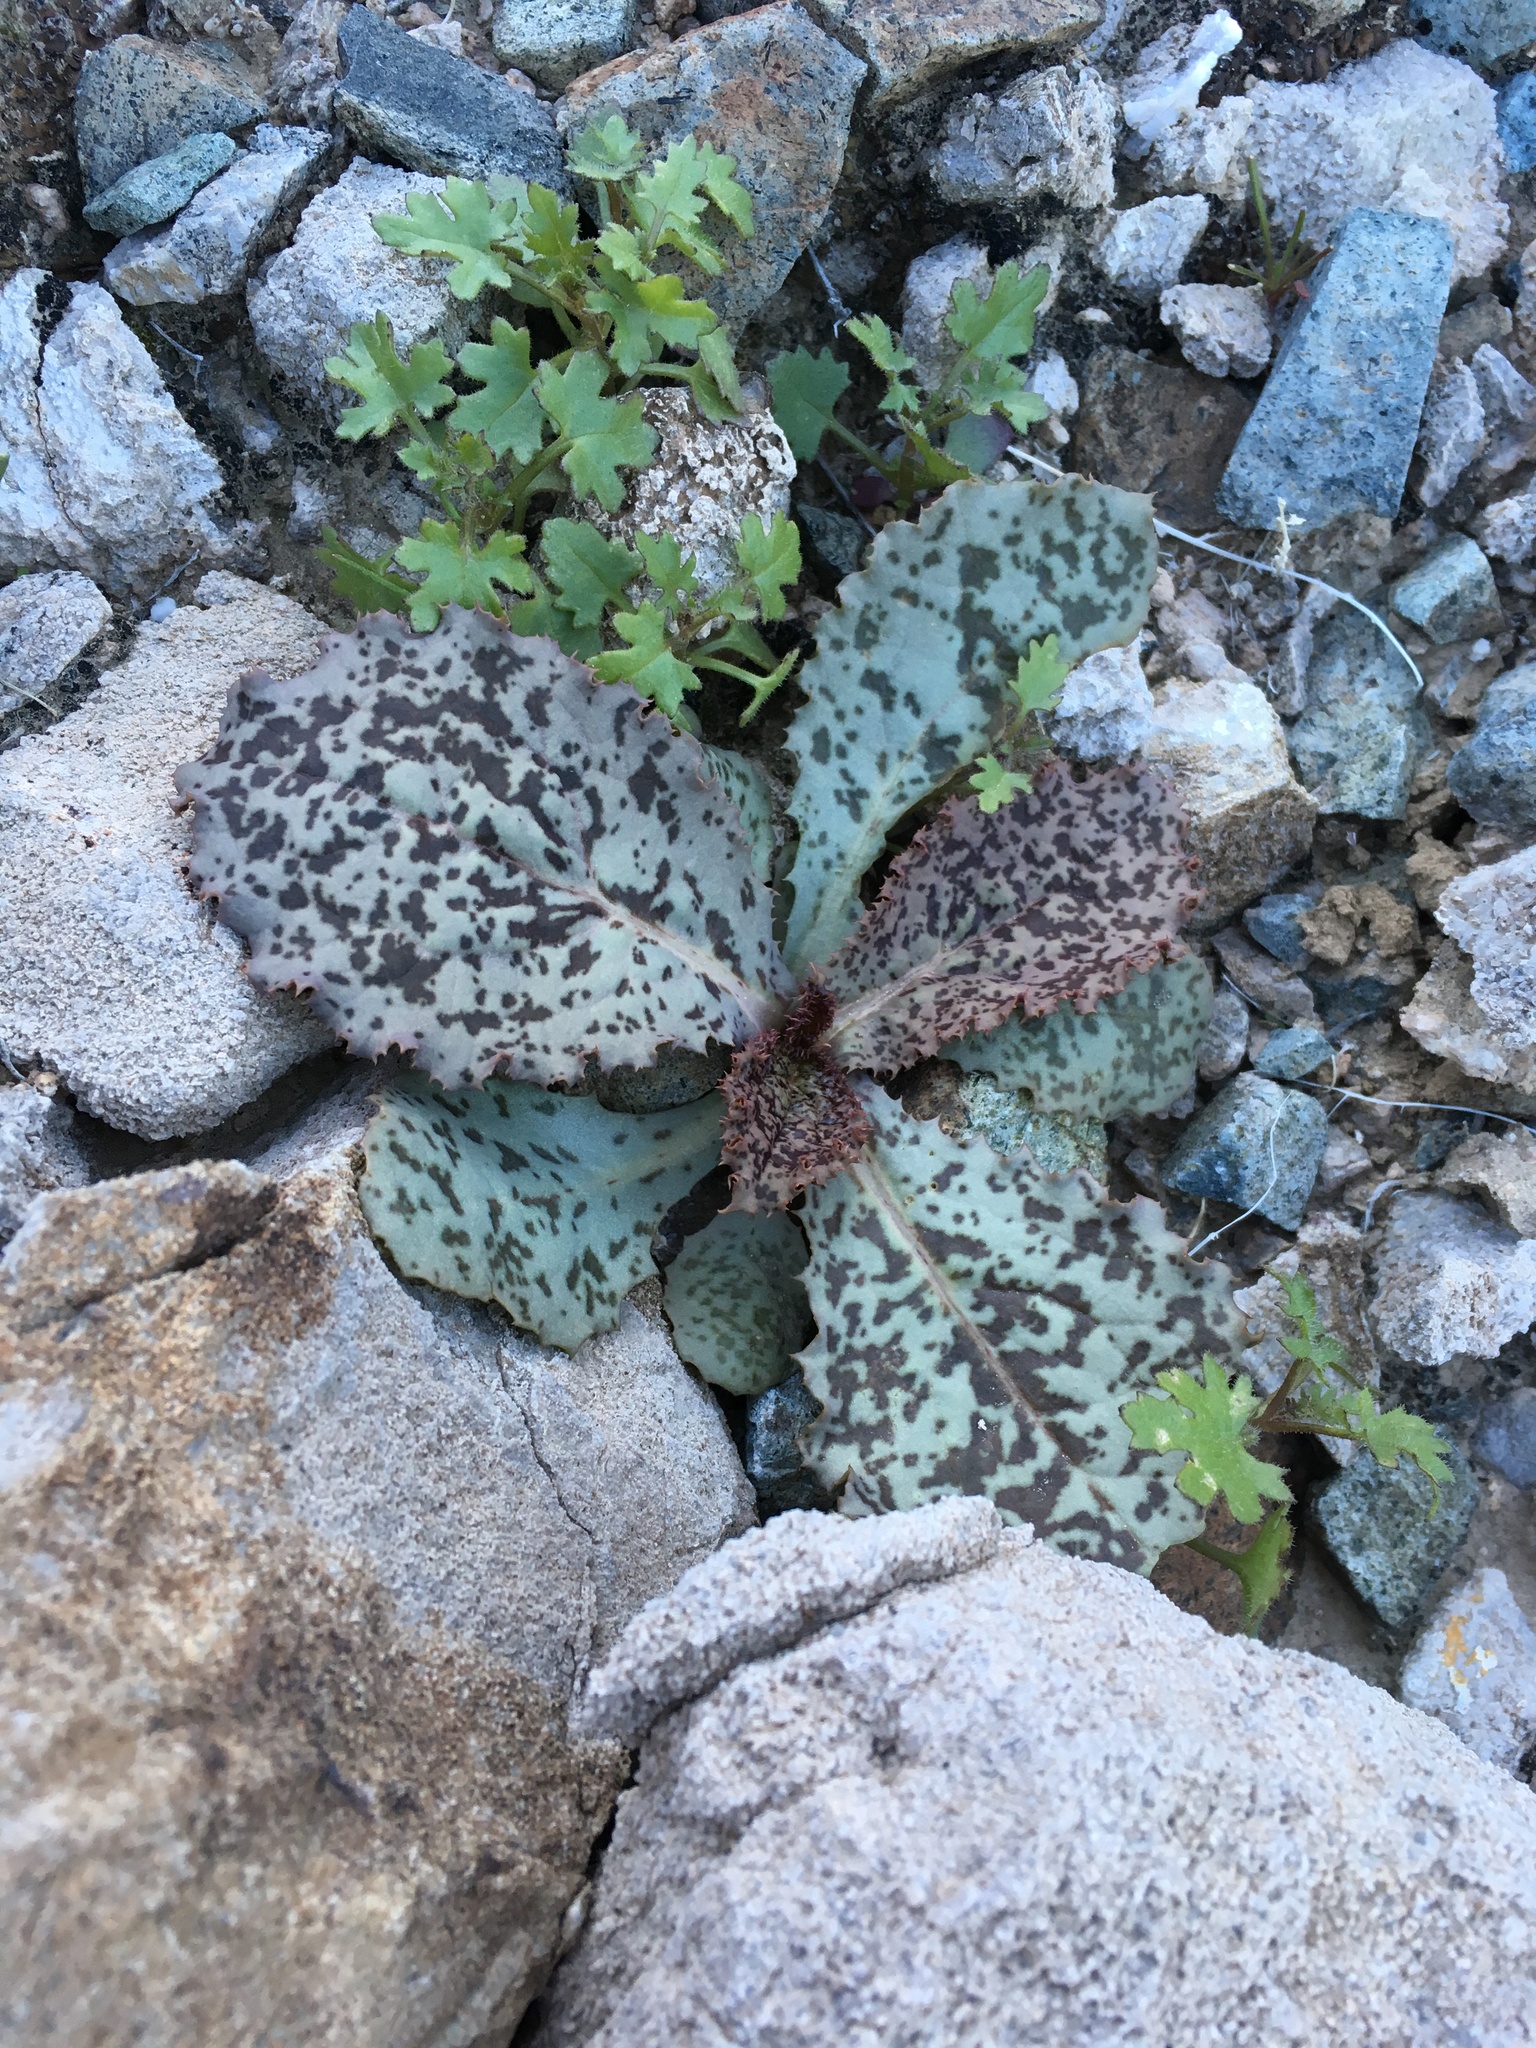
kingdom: Plantae
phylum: Tracheophyta
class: Magnoliopsida
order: Asterales
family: Asteraceae
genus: Atrichoseris
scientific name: Atrichoseris platyphylla
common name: Tobaccoweed
